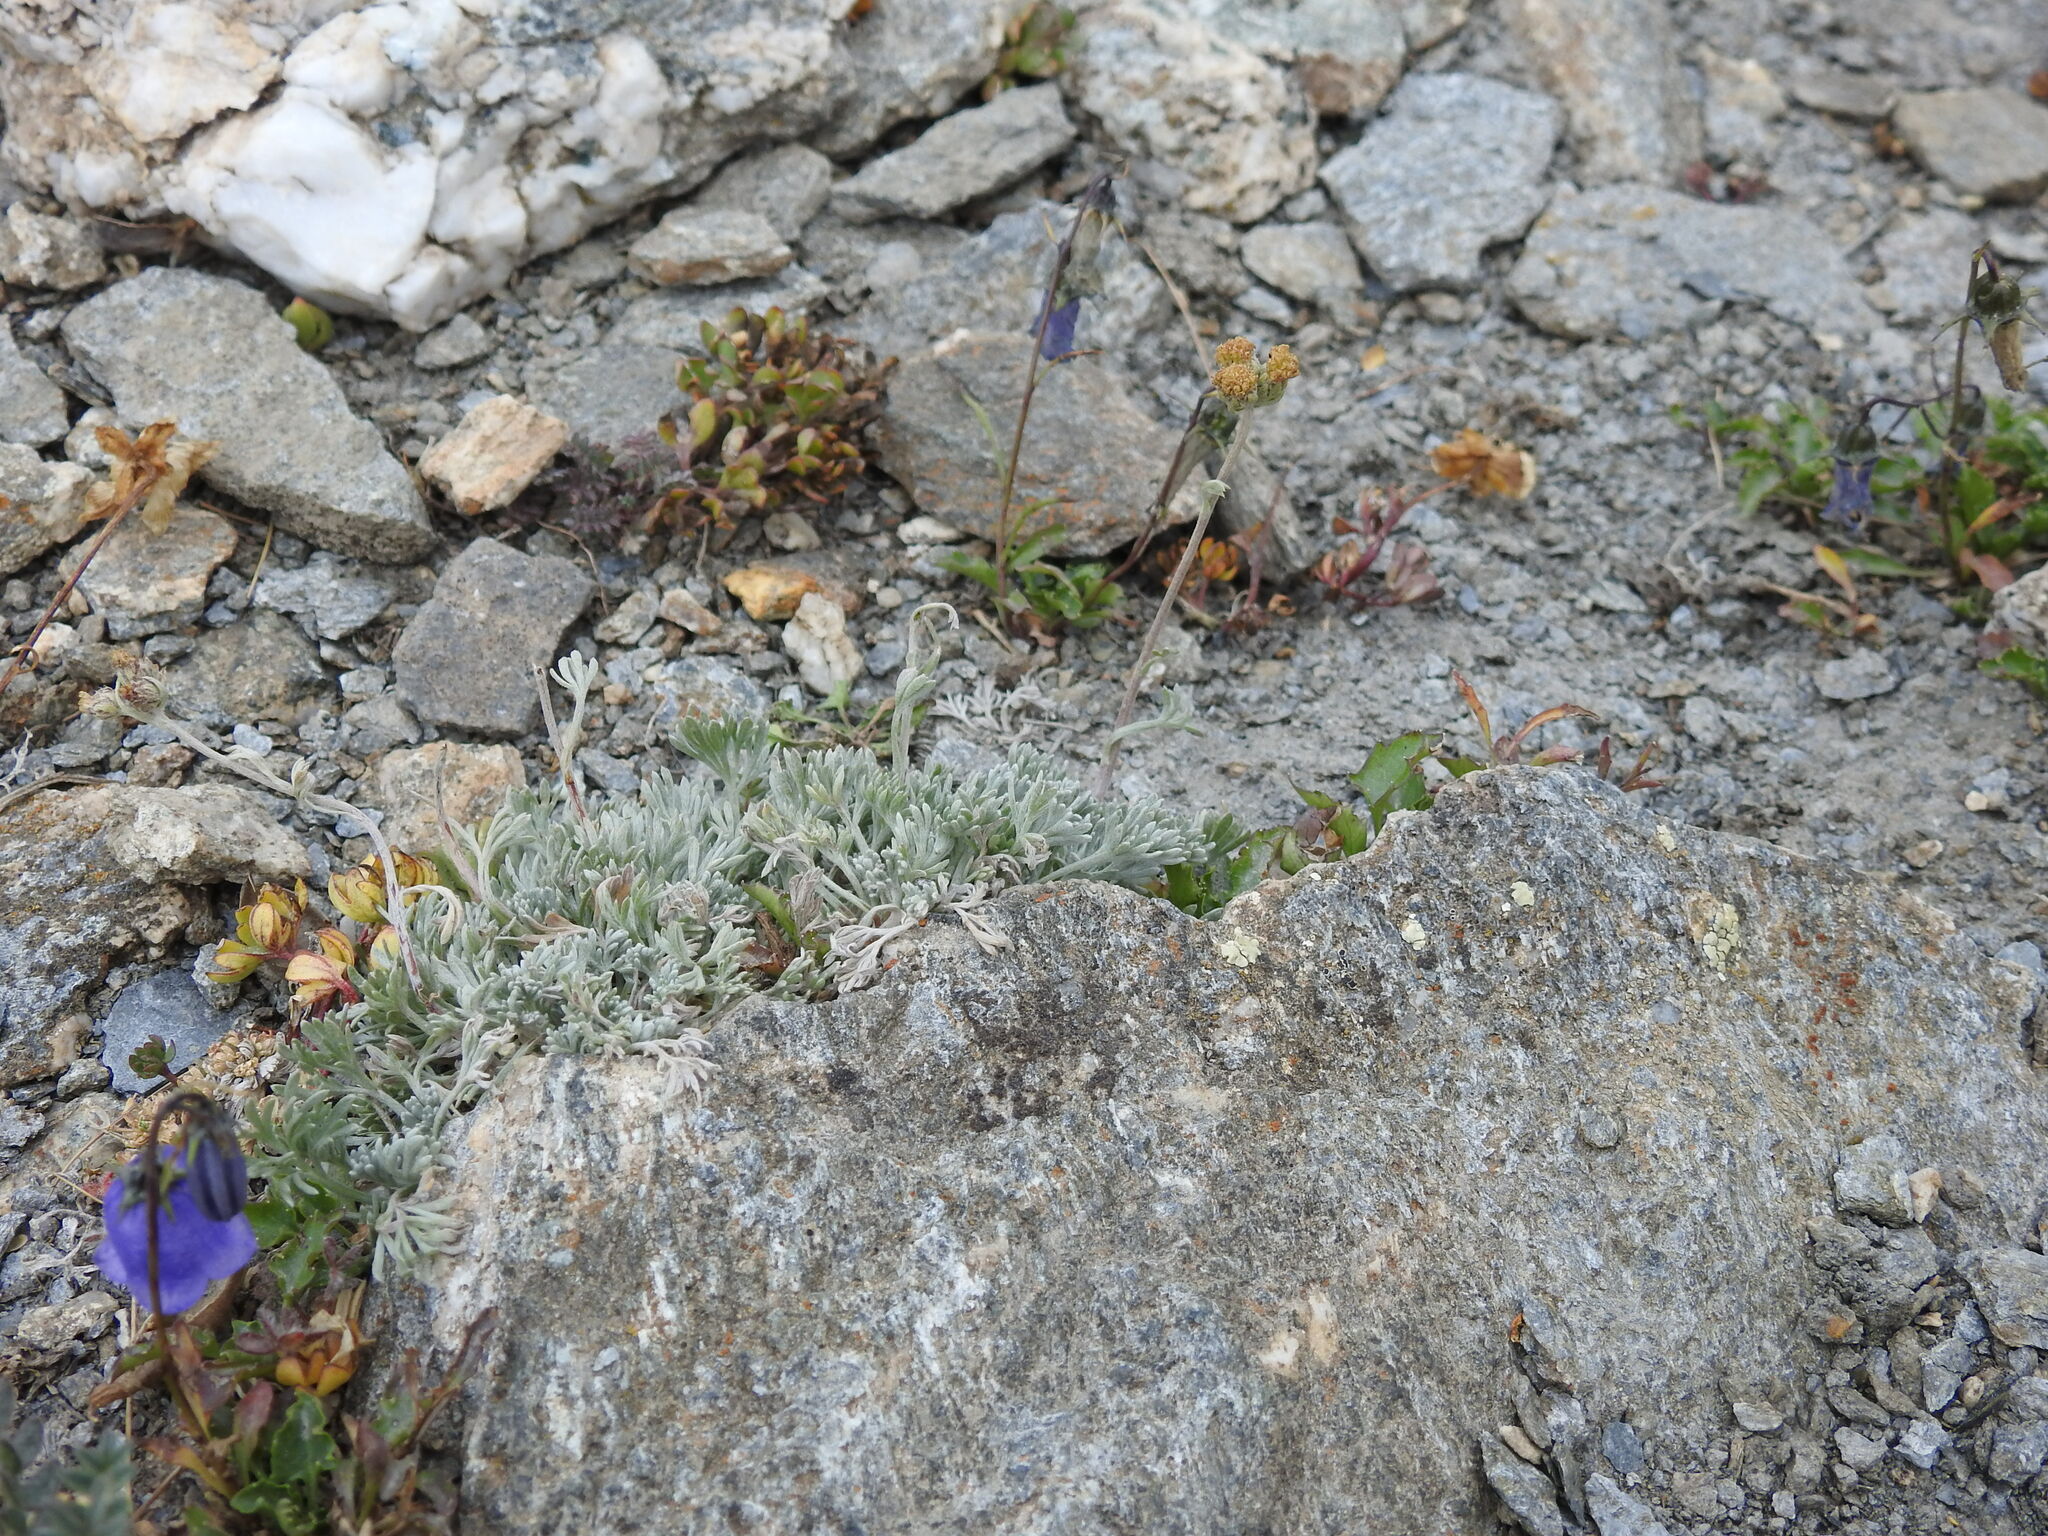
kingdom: Plantae
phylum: Tracheophyta
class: Magnoliopsida
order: Asterales
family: Asteraceae
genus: Artemisia
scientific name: Artemisia glacialis
